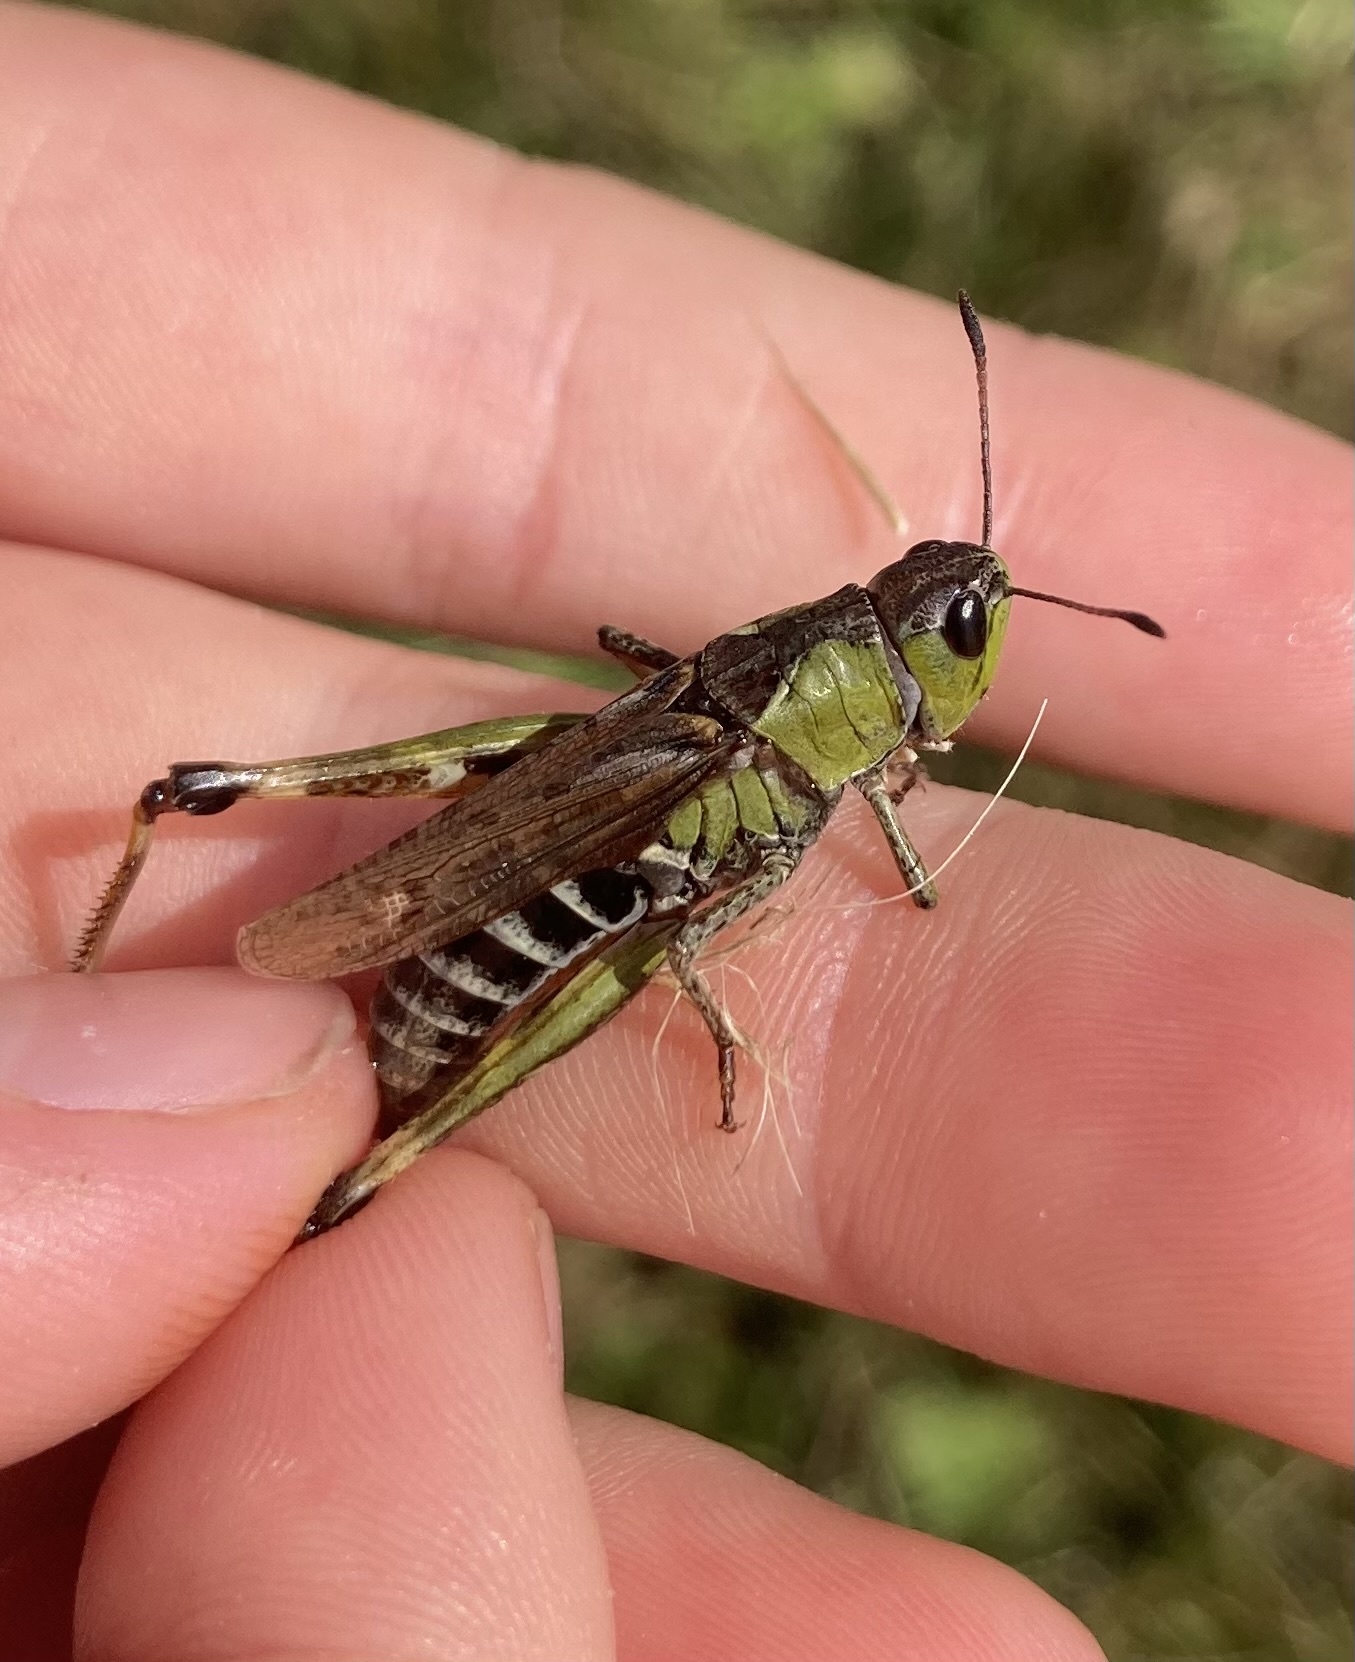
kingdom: Animalia
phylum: Arthropoda
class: Insecta
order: Orthoptera
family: Acrididae
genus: Gomphocerus
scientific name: Gomphocerus sibiricus
